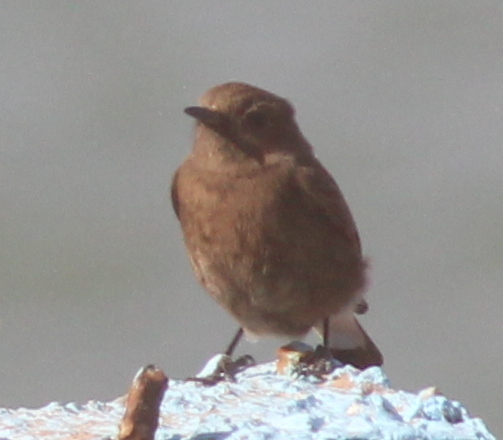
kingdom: Animalia
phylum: Chordata
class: Aves
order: Passeriformes
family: Muscicapidae
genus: Oenanthe
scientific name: Oenanthe leucura
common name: Black wheatear
